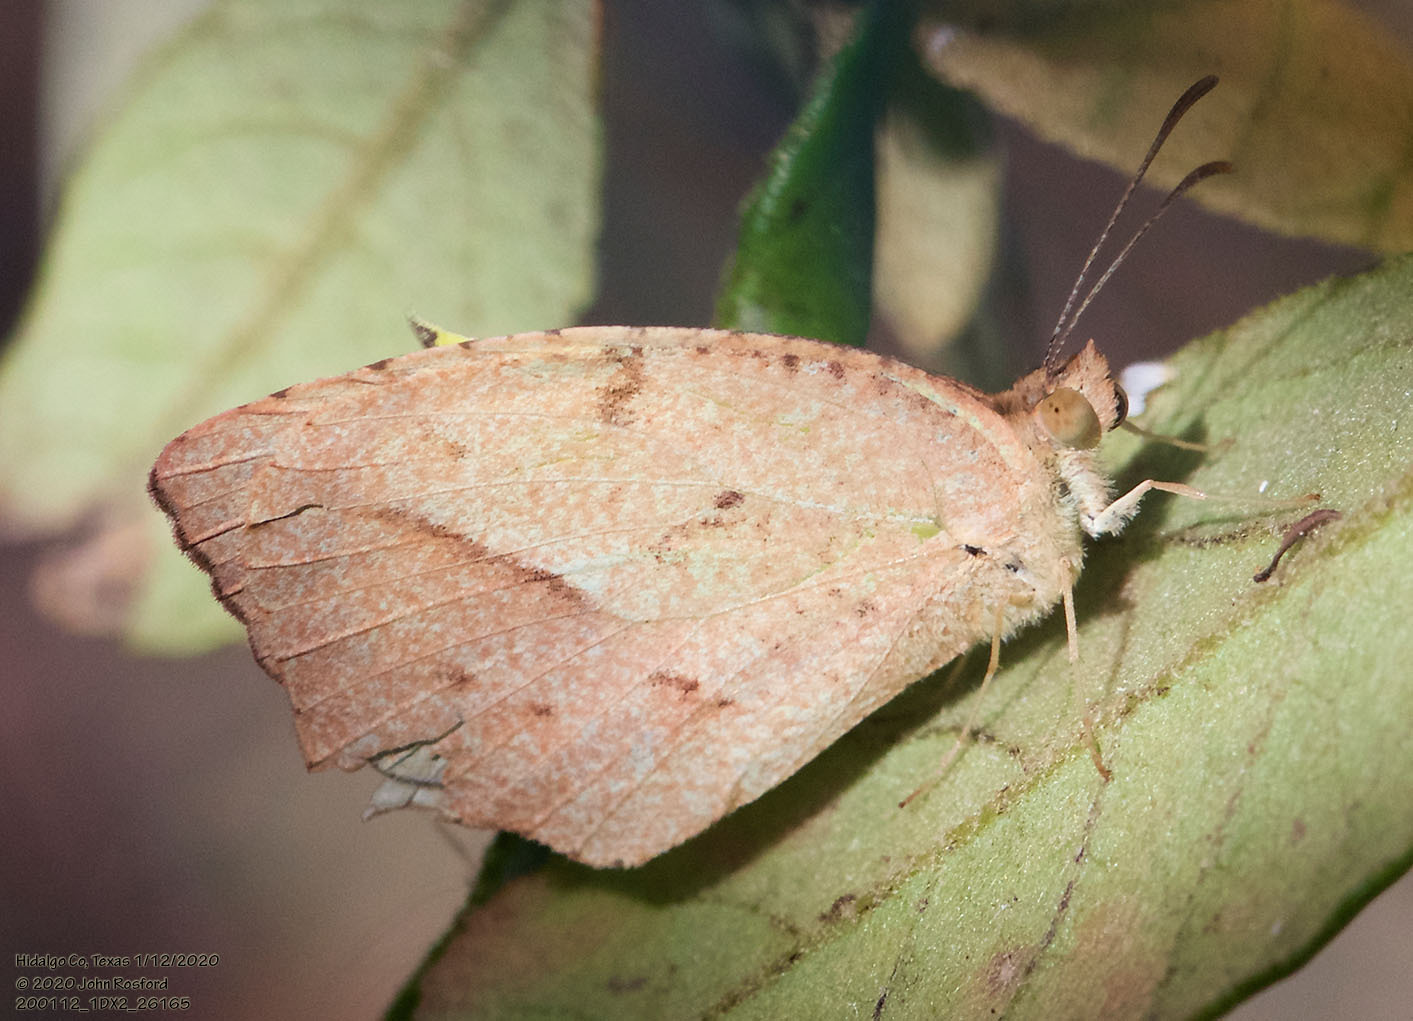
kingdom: Animalia
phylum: Arthropoda
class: Insecta
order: Lepidoptera
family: Pieridae
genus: Abaeis
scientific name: Abaeis mexicana
